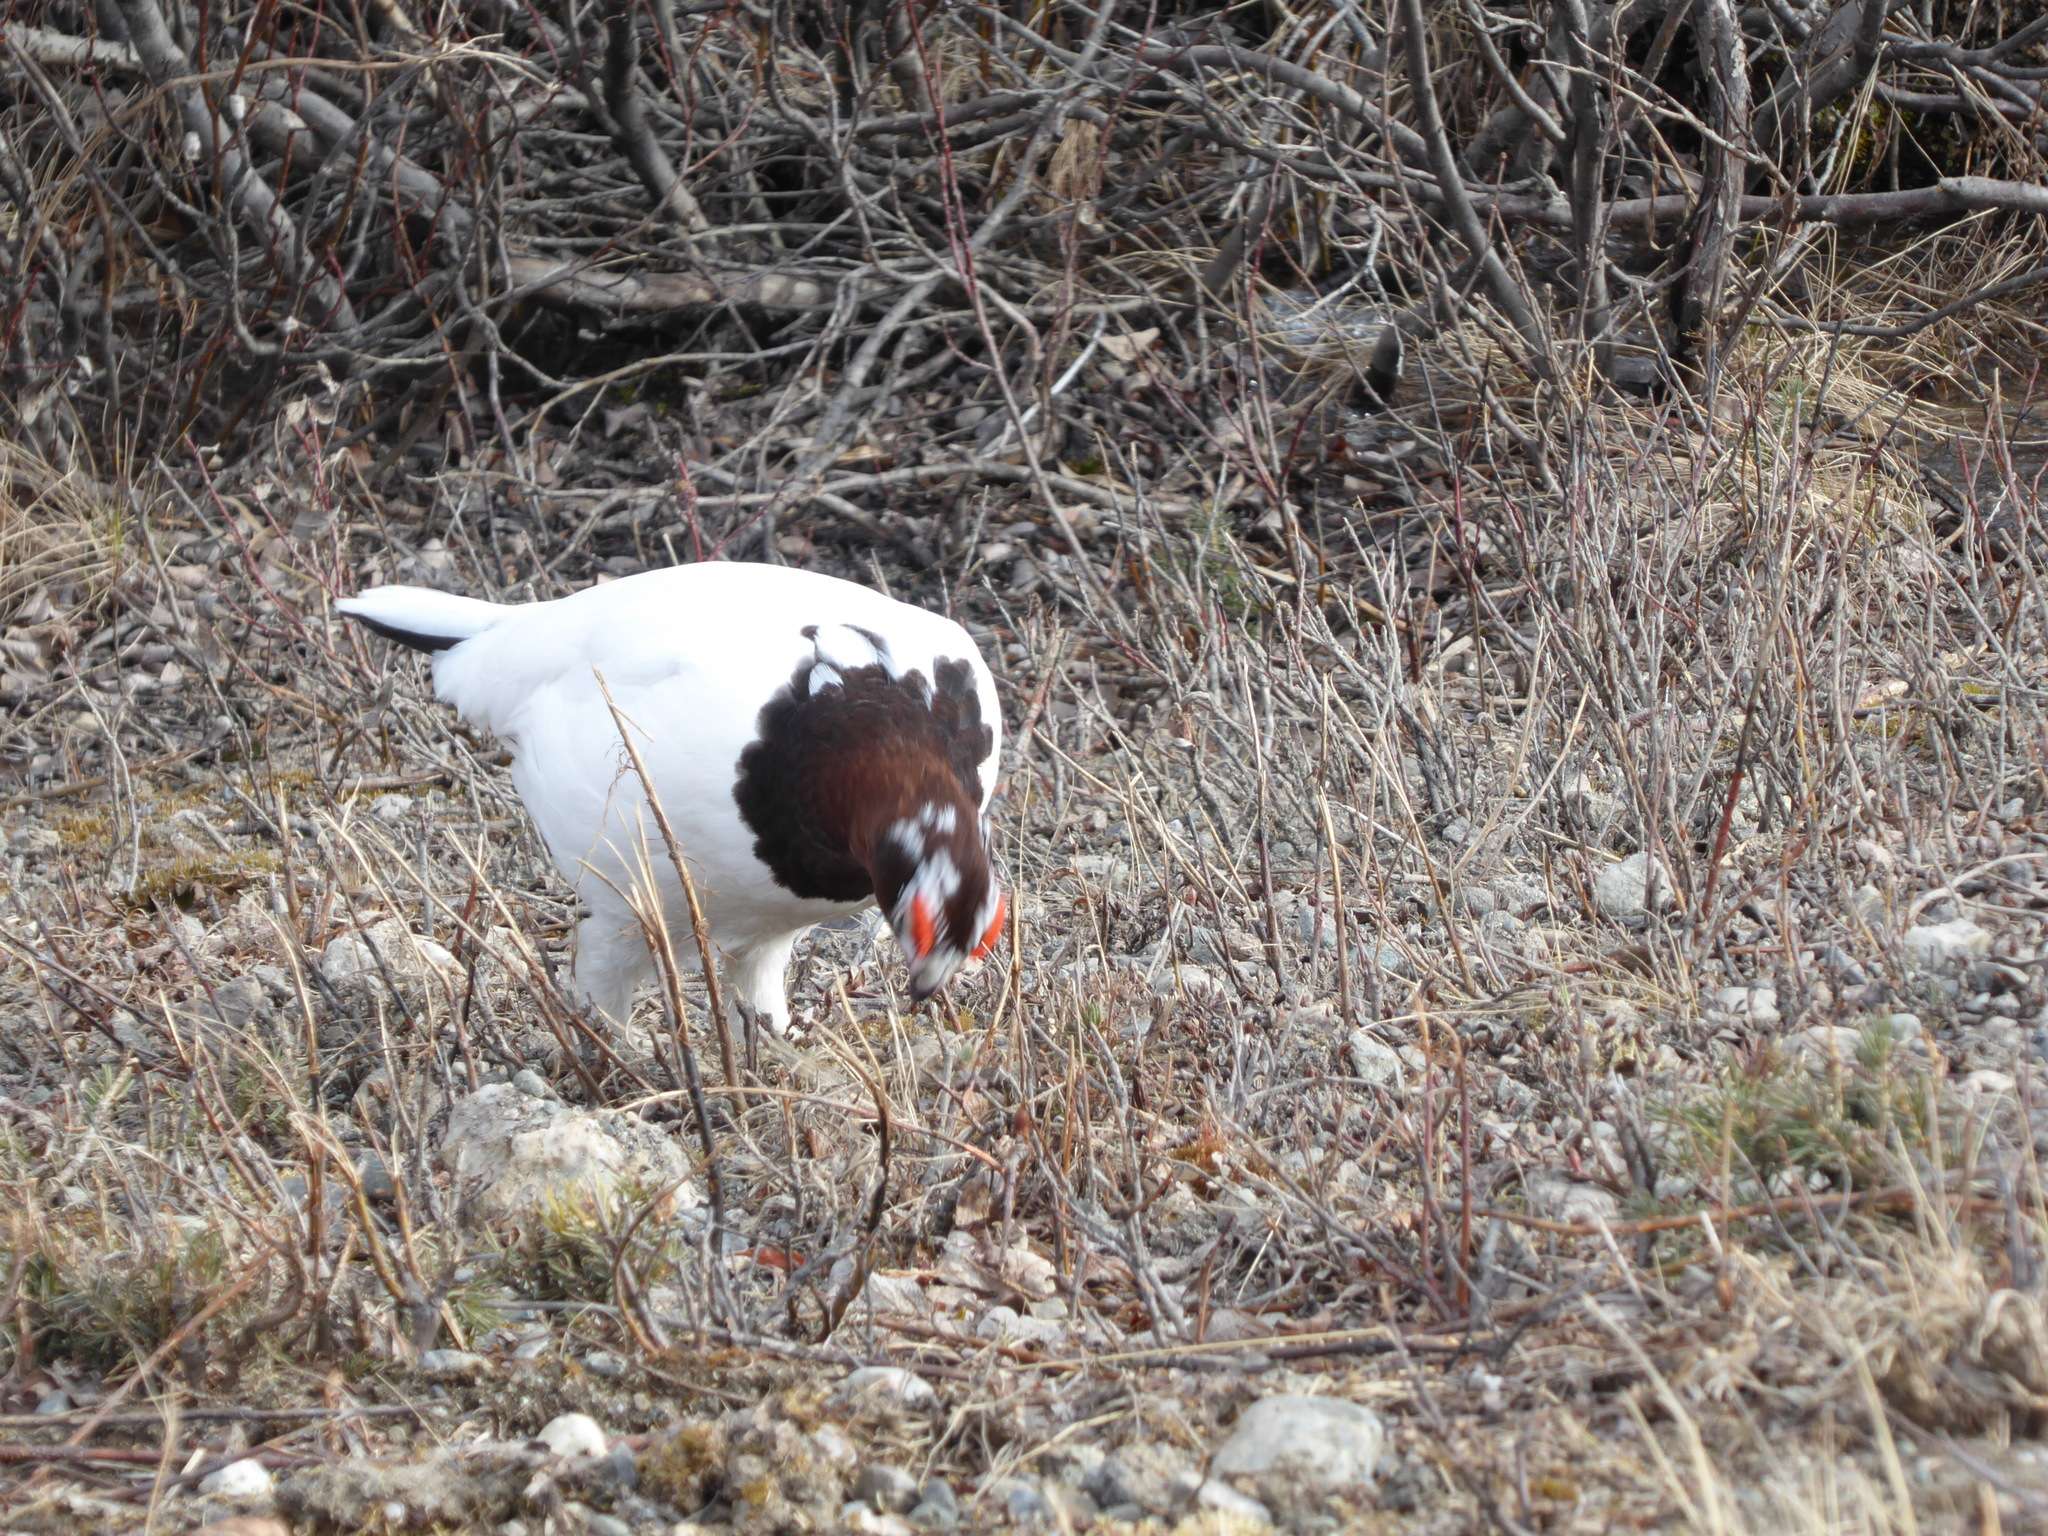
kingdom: Animalia
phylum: Chordata
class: Aves
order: Galliformes
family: Phasianidae
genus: Lagopus
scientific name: Lagopus lagopus
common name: Willow ptarmigan
